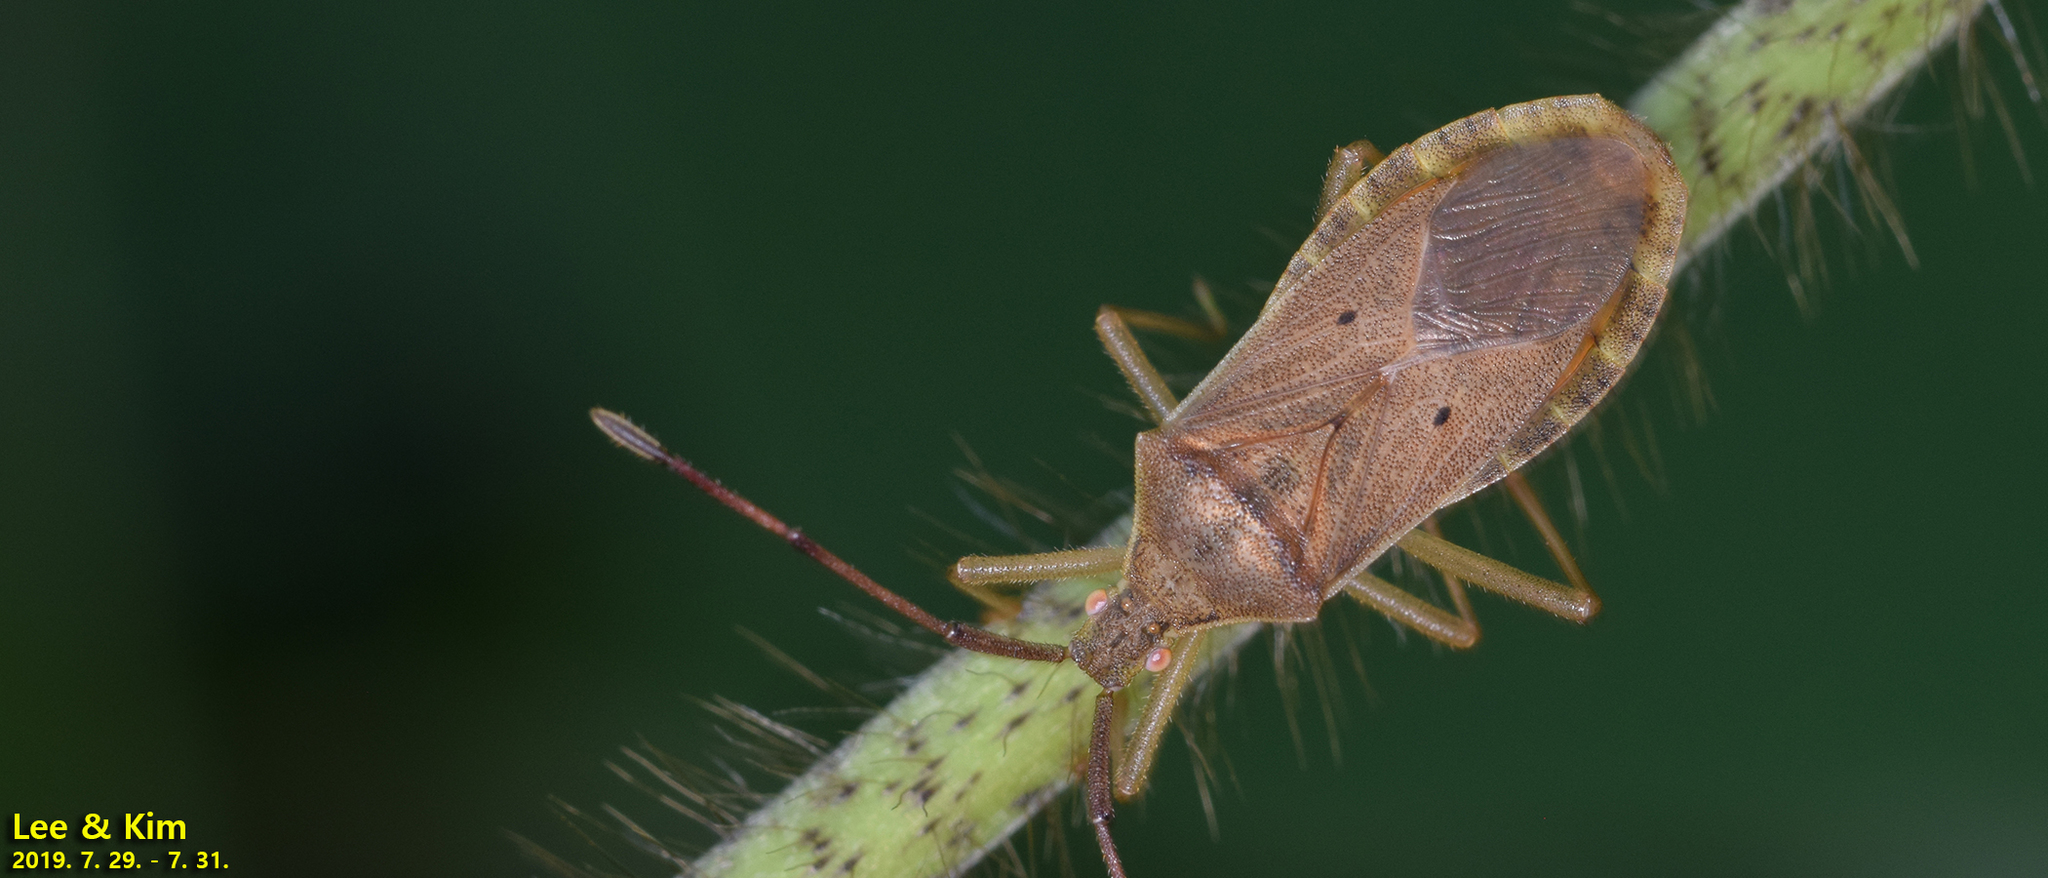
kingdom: Animalia
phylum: Arthropoda
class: Insecta
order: Hemiptera
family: Coreidae
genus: Homoeocerus
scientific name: Homoeocerus unipunctatus
